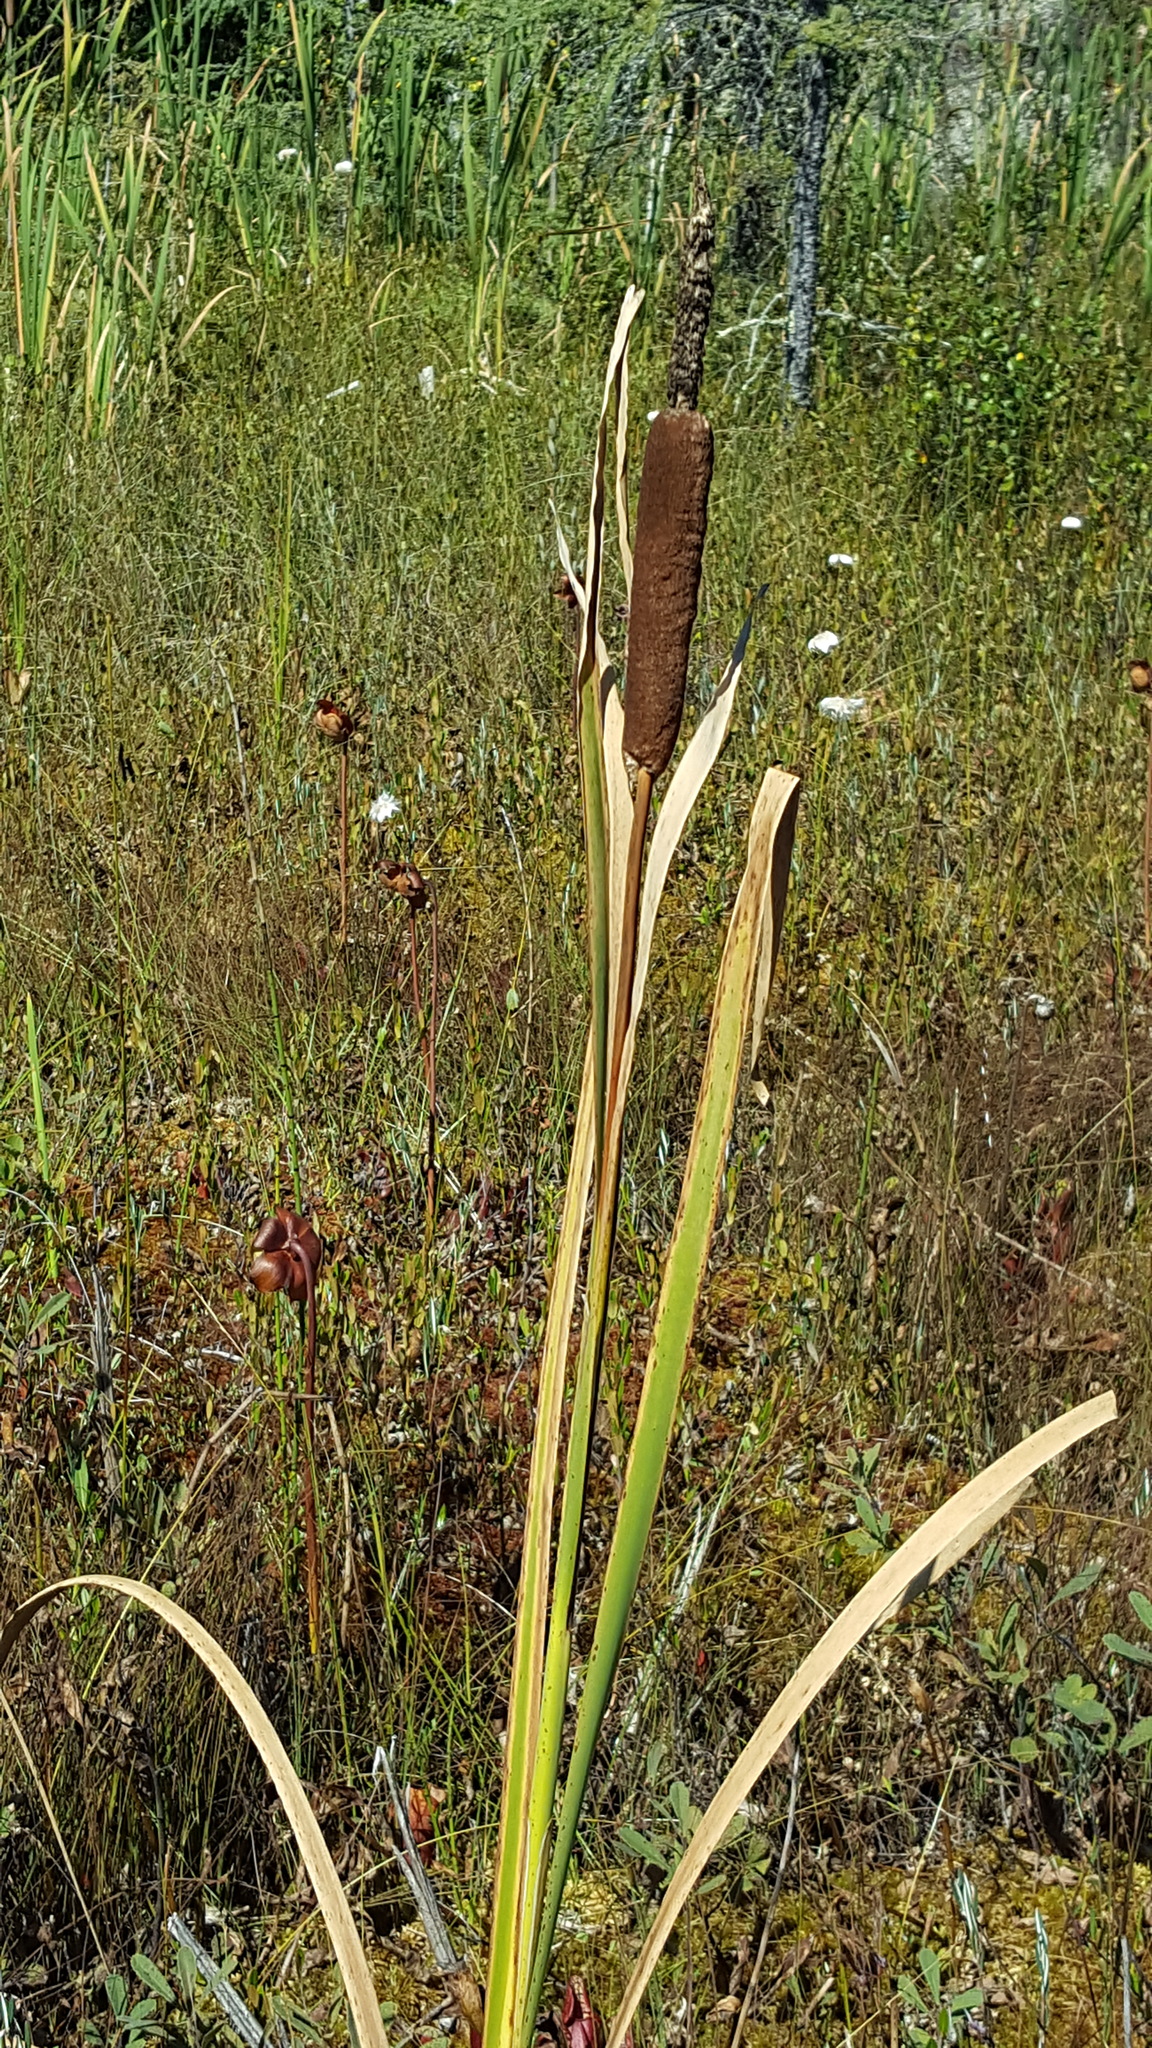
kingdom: Plantae
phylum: Tracheophyta
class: Liliopsida
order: Poales
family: Typhaceae
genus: Typha
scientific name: Typha latifolia
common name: Broadleaf cattail
